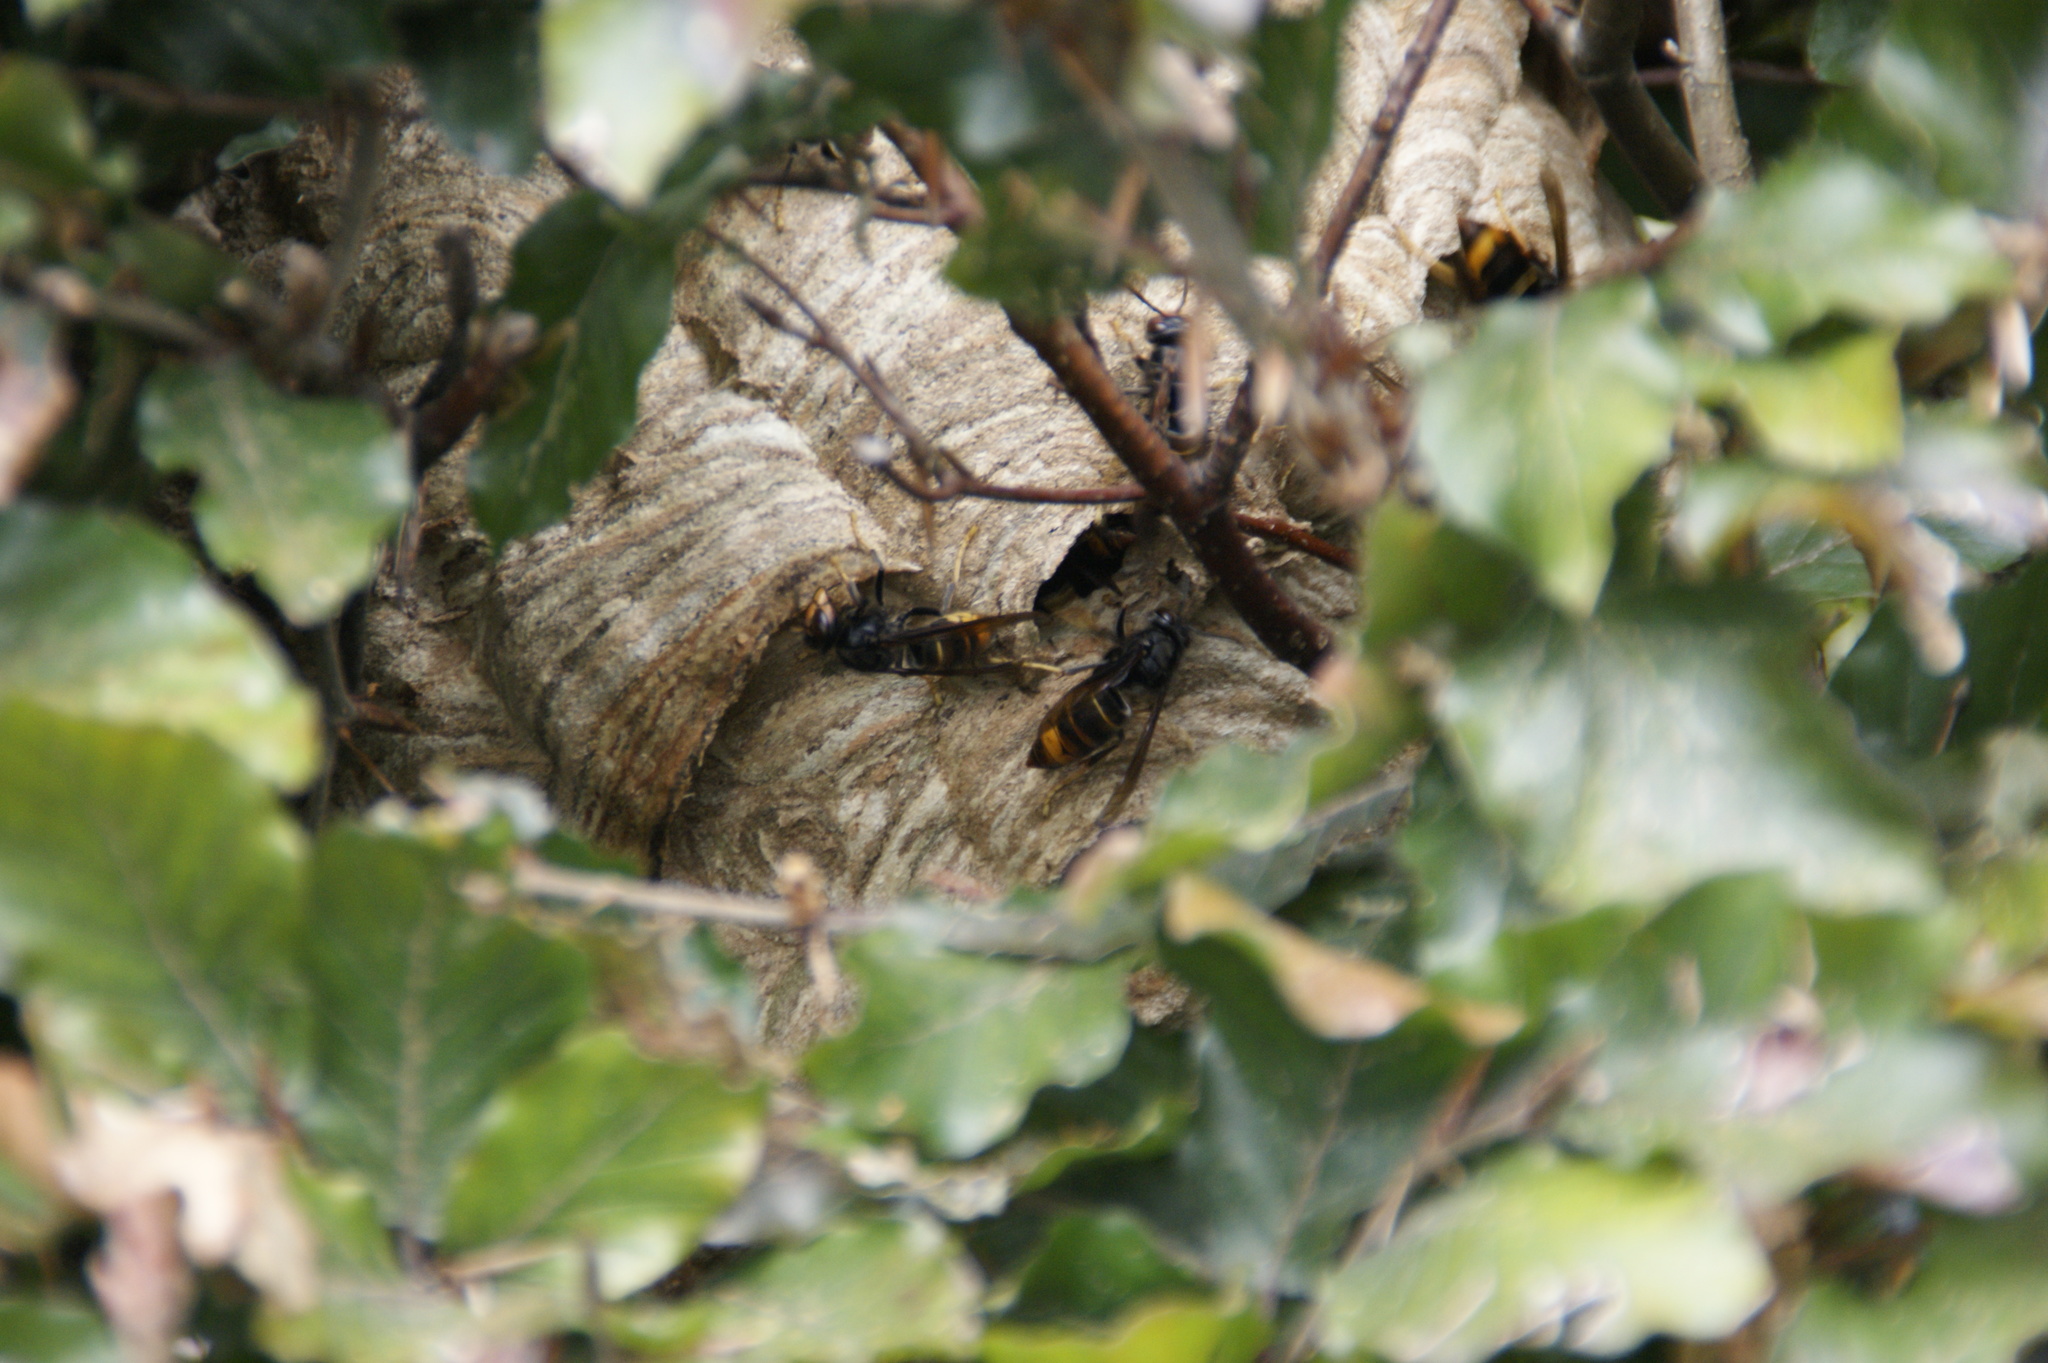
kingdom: Animalia
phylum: Arthropoda
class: Insecta
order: Hymenoptera
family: Vespidae
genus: Vespa
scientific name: Vespa velutina
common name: Asian hornet
